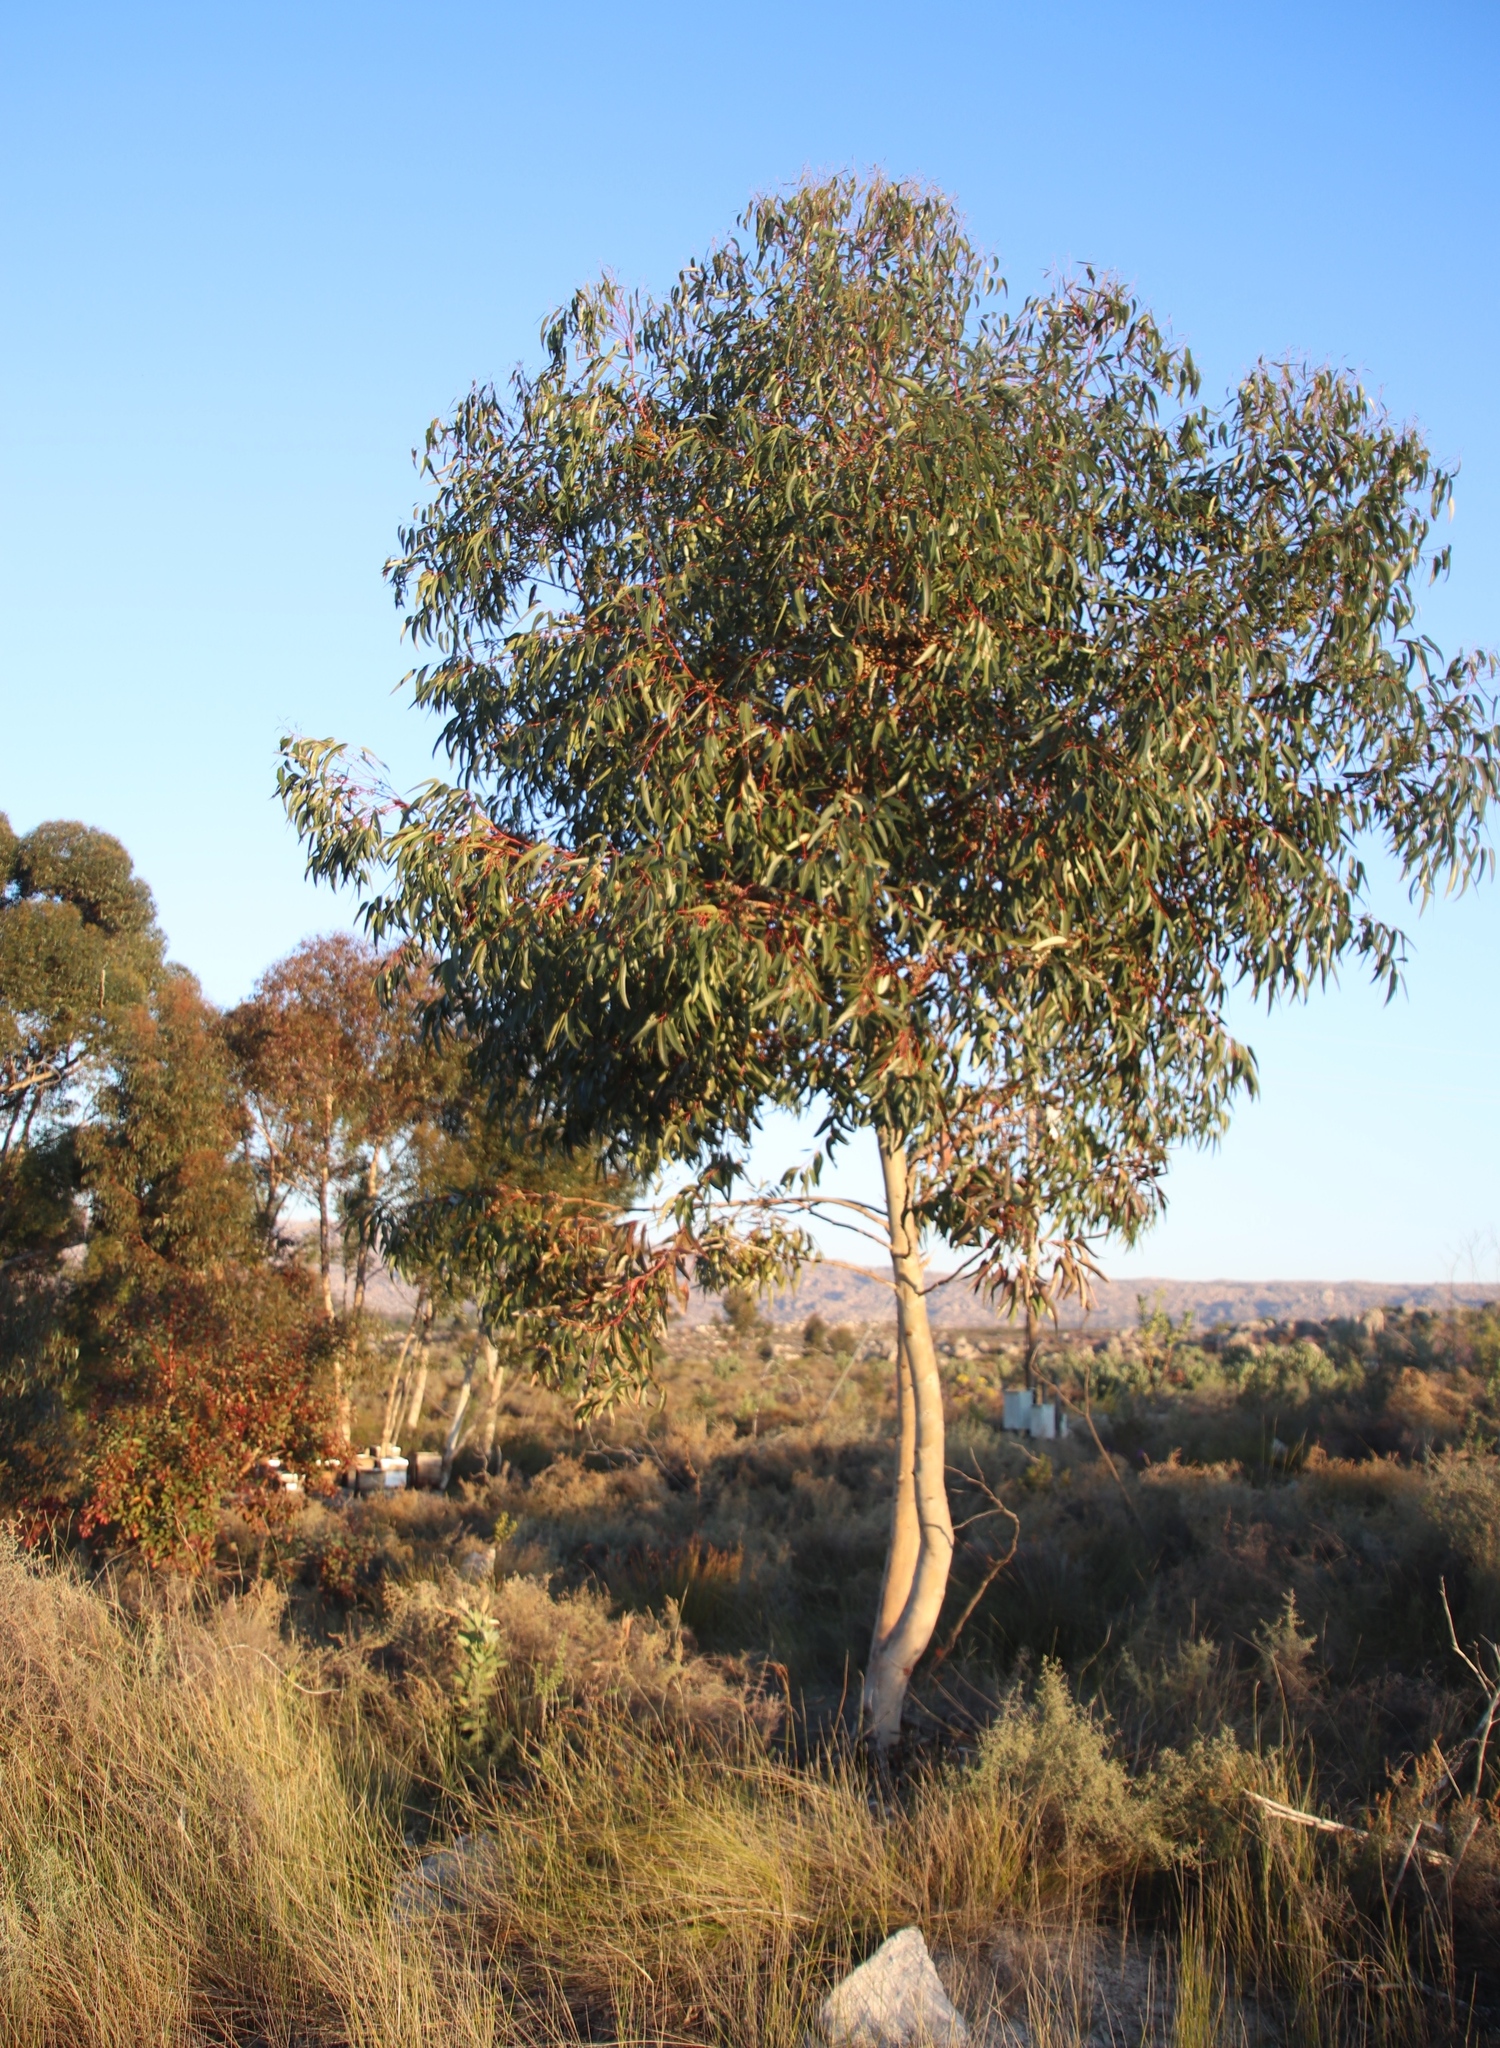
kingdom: Plantae
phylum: Tracheophyta
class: Magnoliopsida
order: Myrtales
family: Myrtaceae
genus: Eucalyptus
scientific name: Eucalyptus cladocalyx
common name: Sugargum
